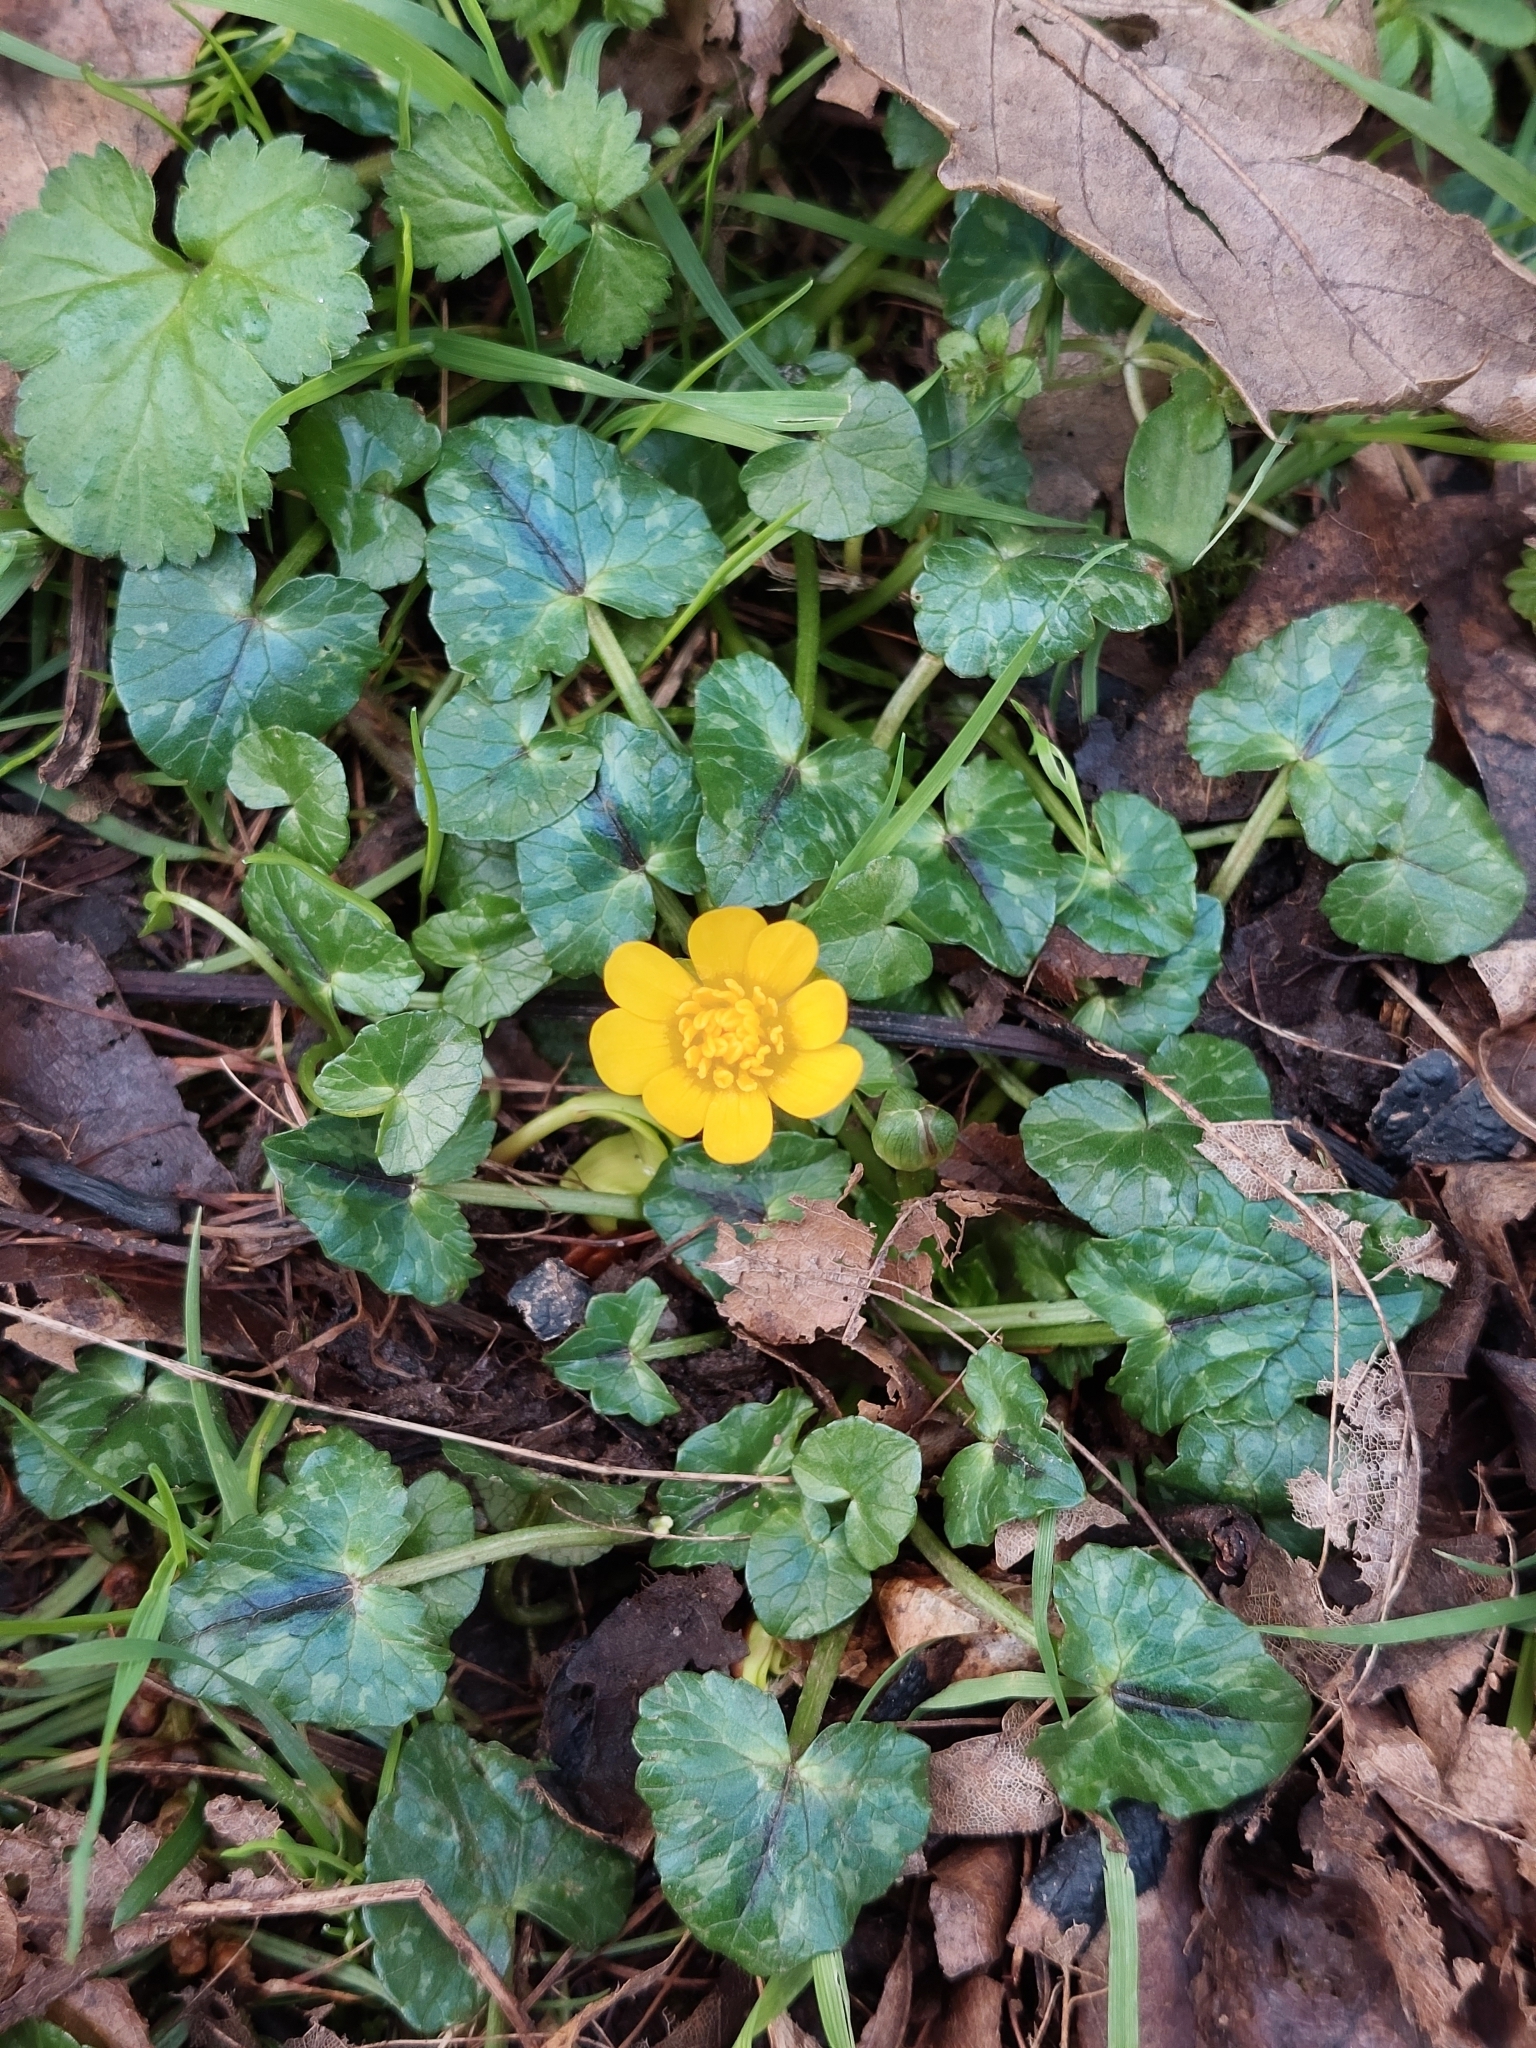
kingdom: Plantae
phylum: Tracheophyta
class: Magnoliopsida
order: Ranunculales
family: Ranunculaceae
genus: Ficaria
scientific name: Ficaria verna
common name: Lesser celandine
